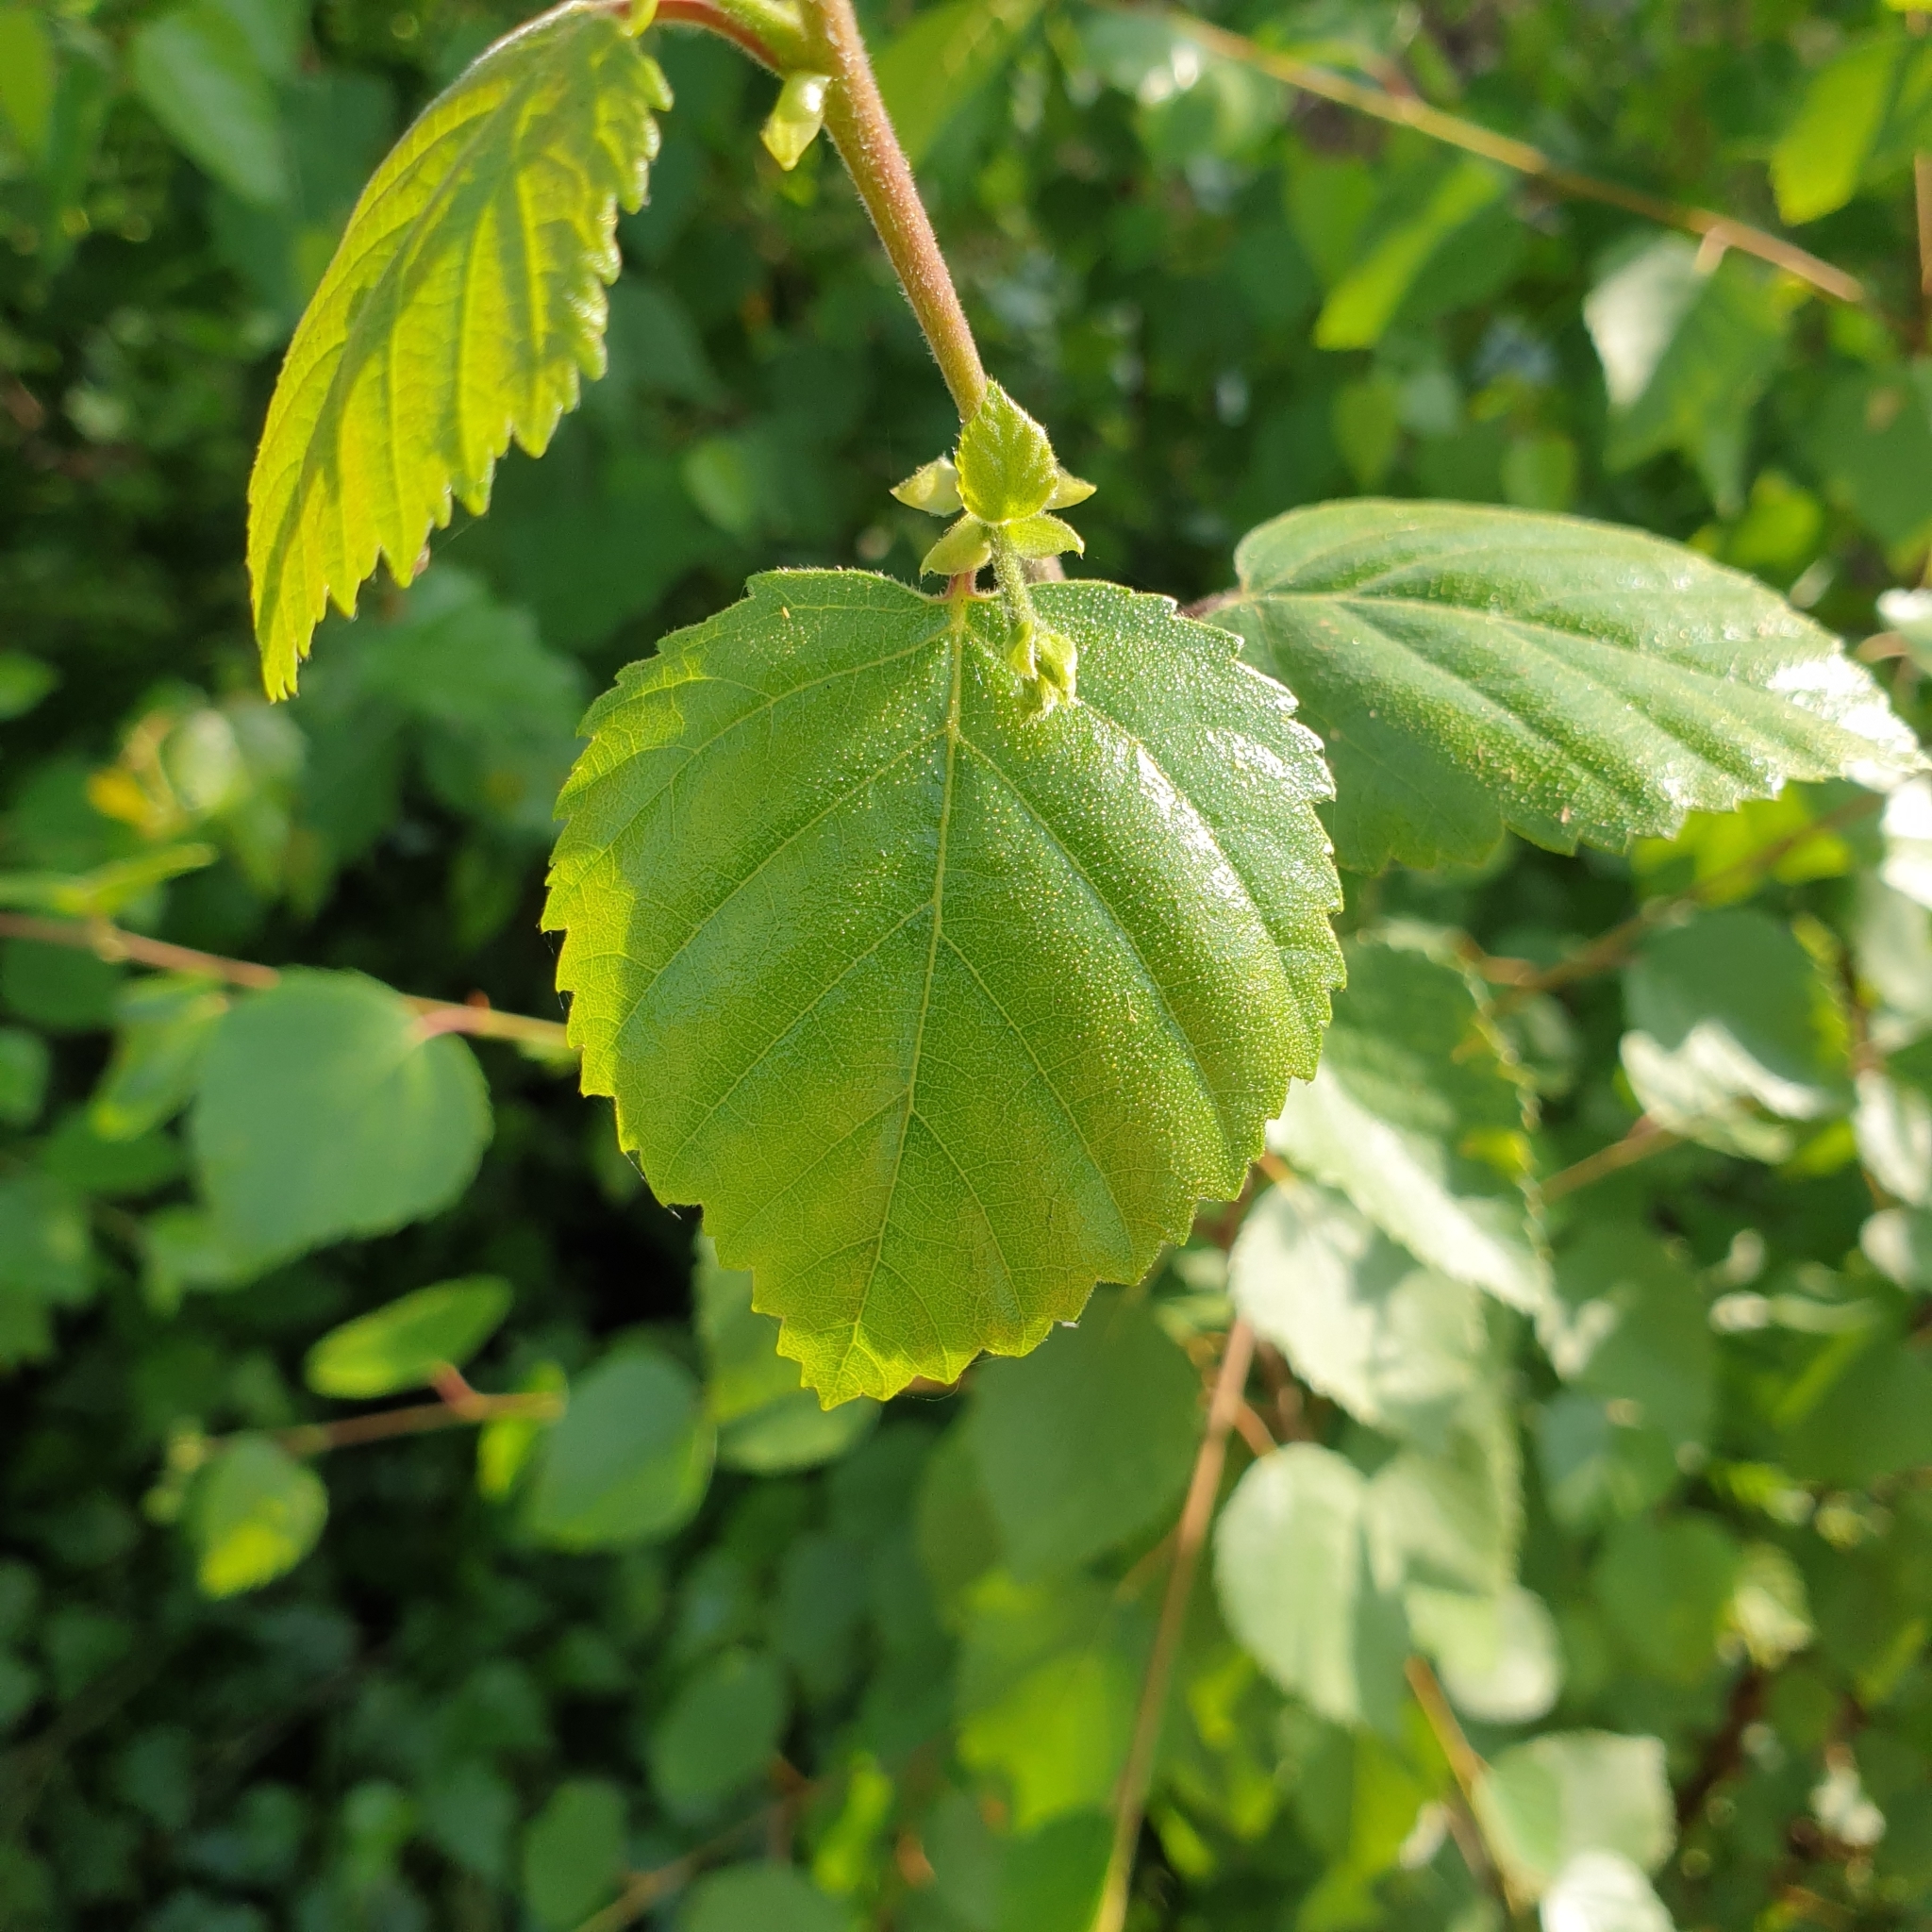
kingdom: Plantae
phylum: Tracheophyta
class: Magnoliopsida
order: Fagales
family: Betulaceae
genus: Betula
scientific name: Betula pubescens
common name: Downy birch
